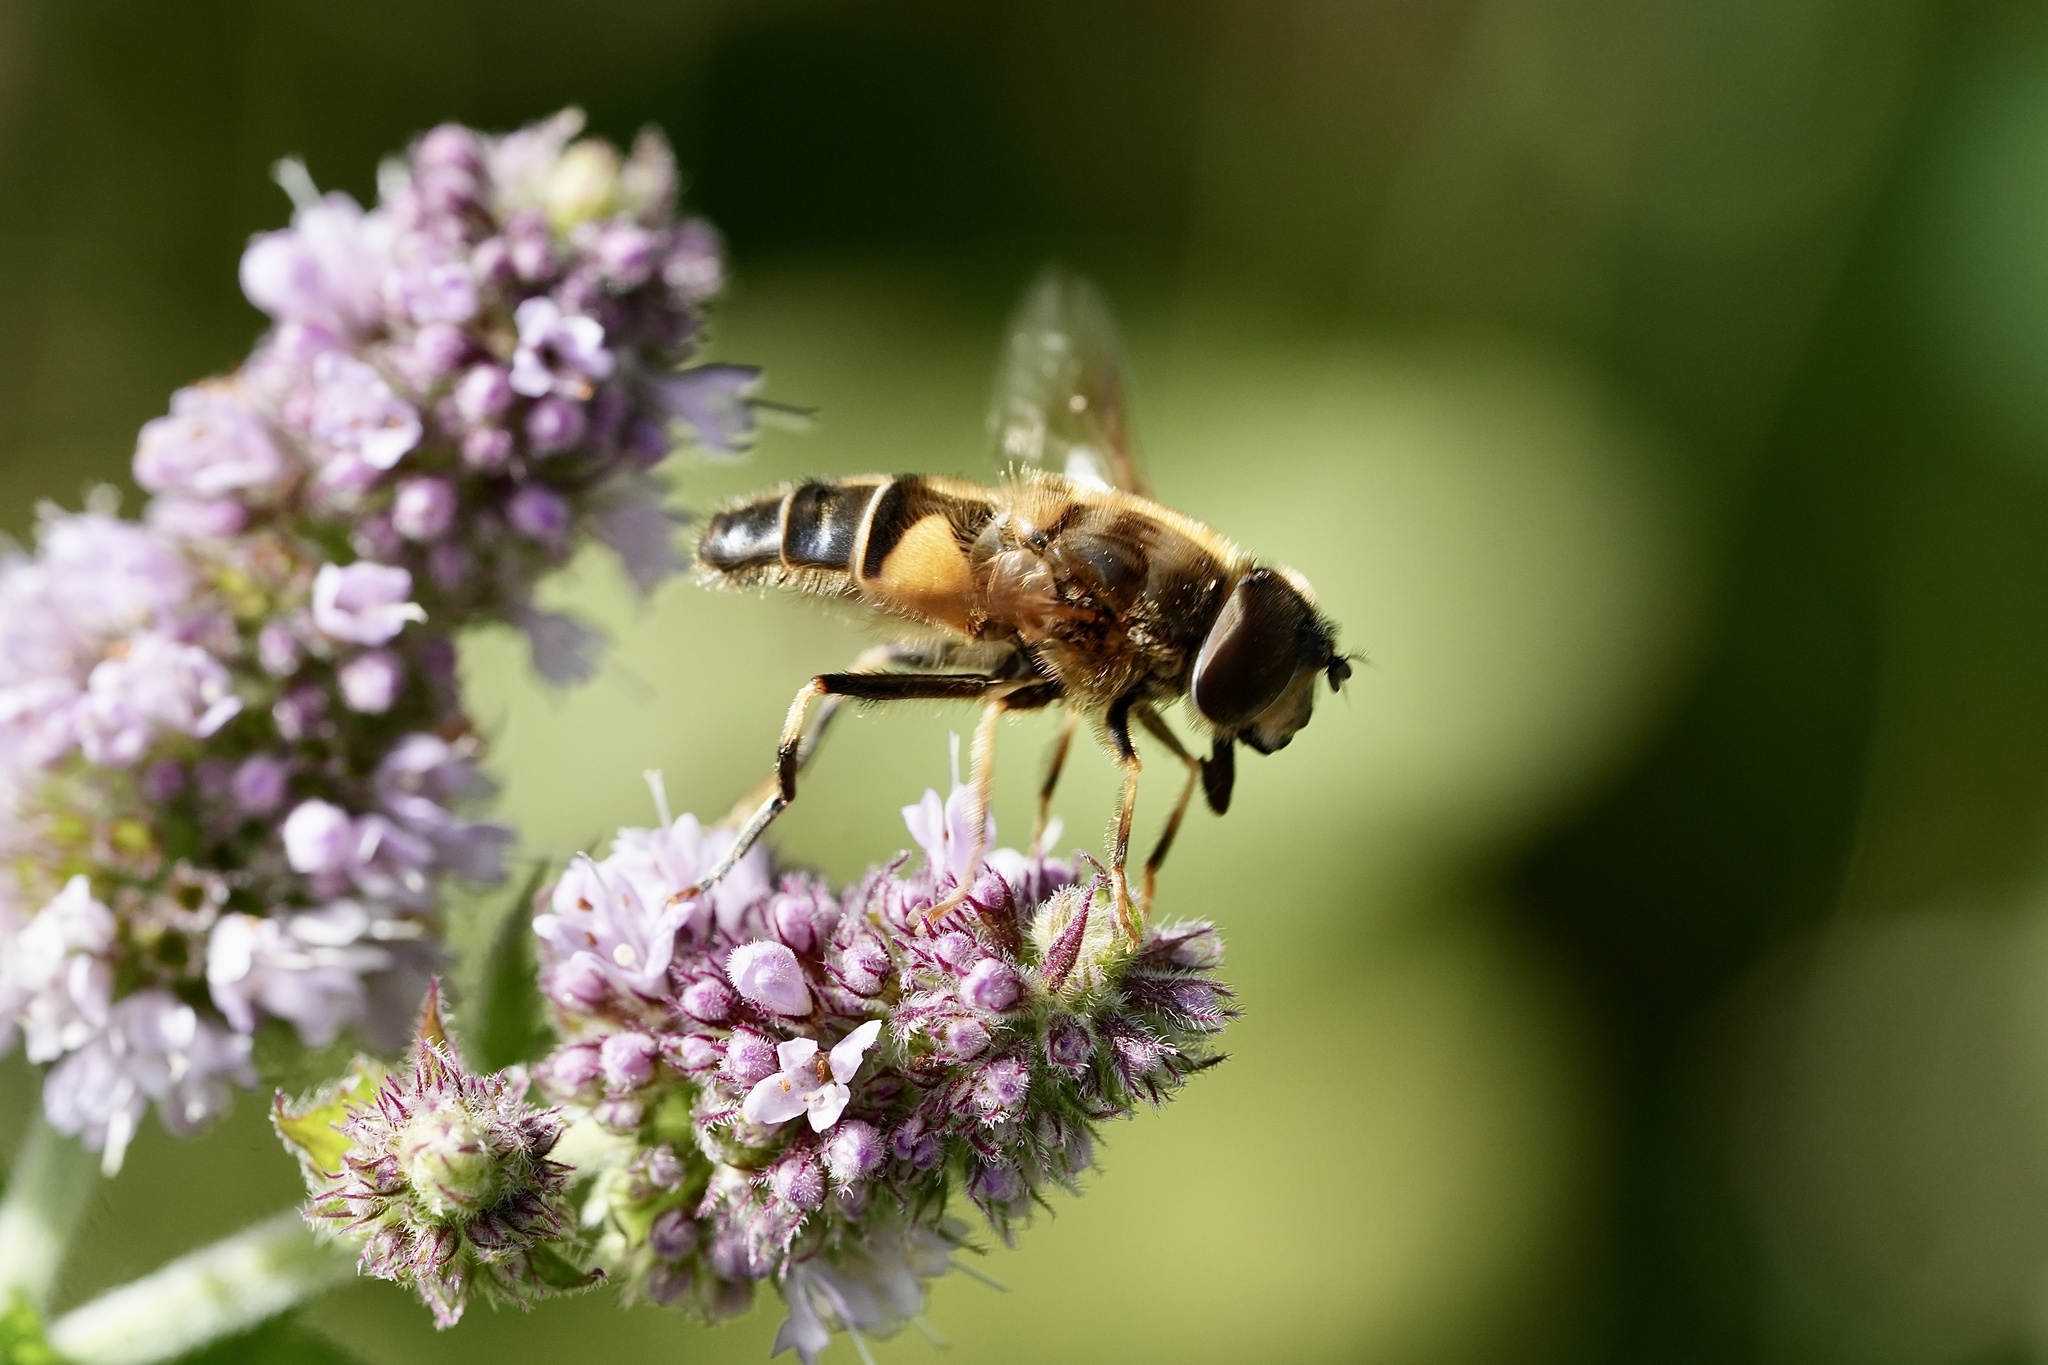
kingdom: Animalia
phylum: Arthropoda
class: Insecta
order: Diptera
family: Syrphidae
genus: Eristalis
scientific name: Eristalis pertinax
